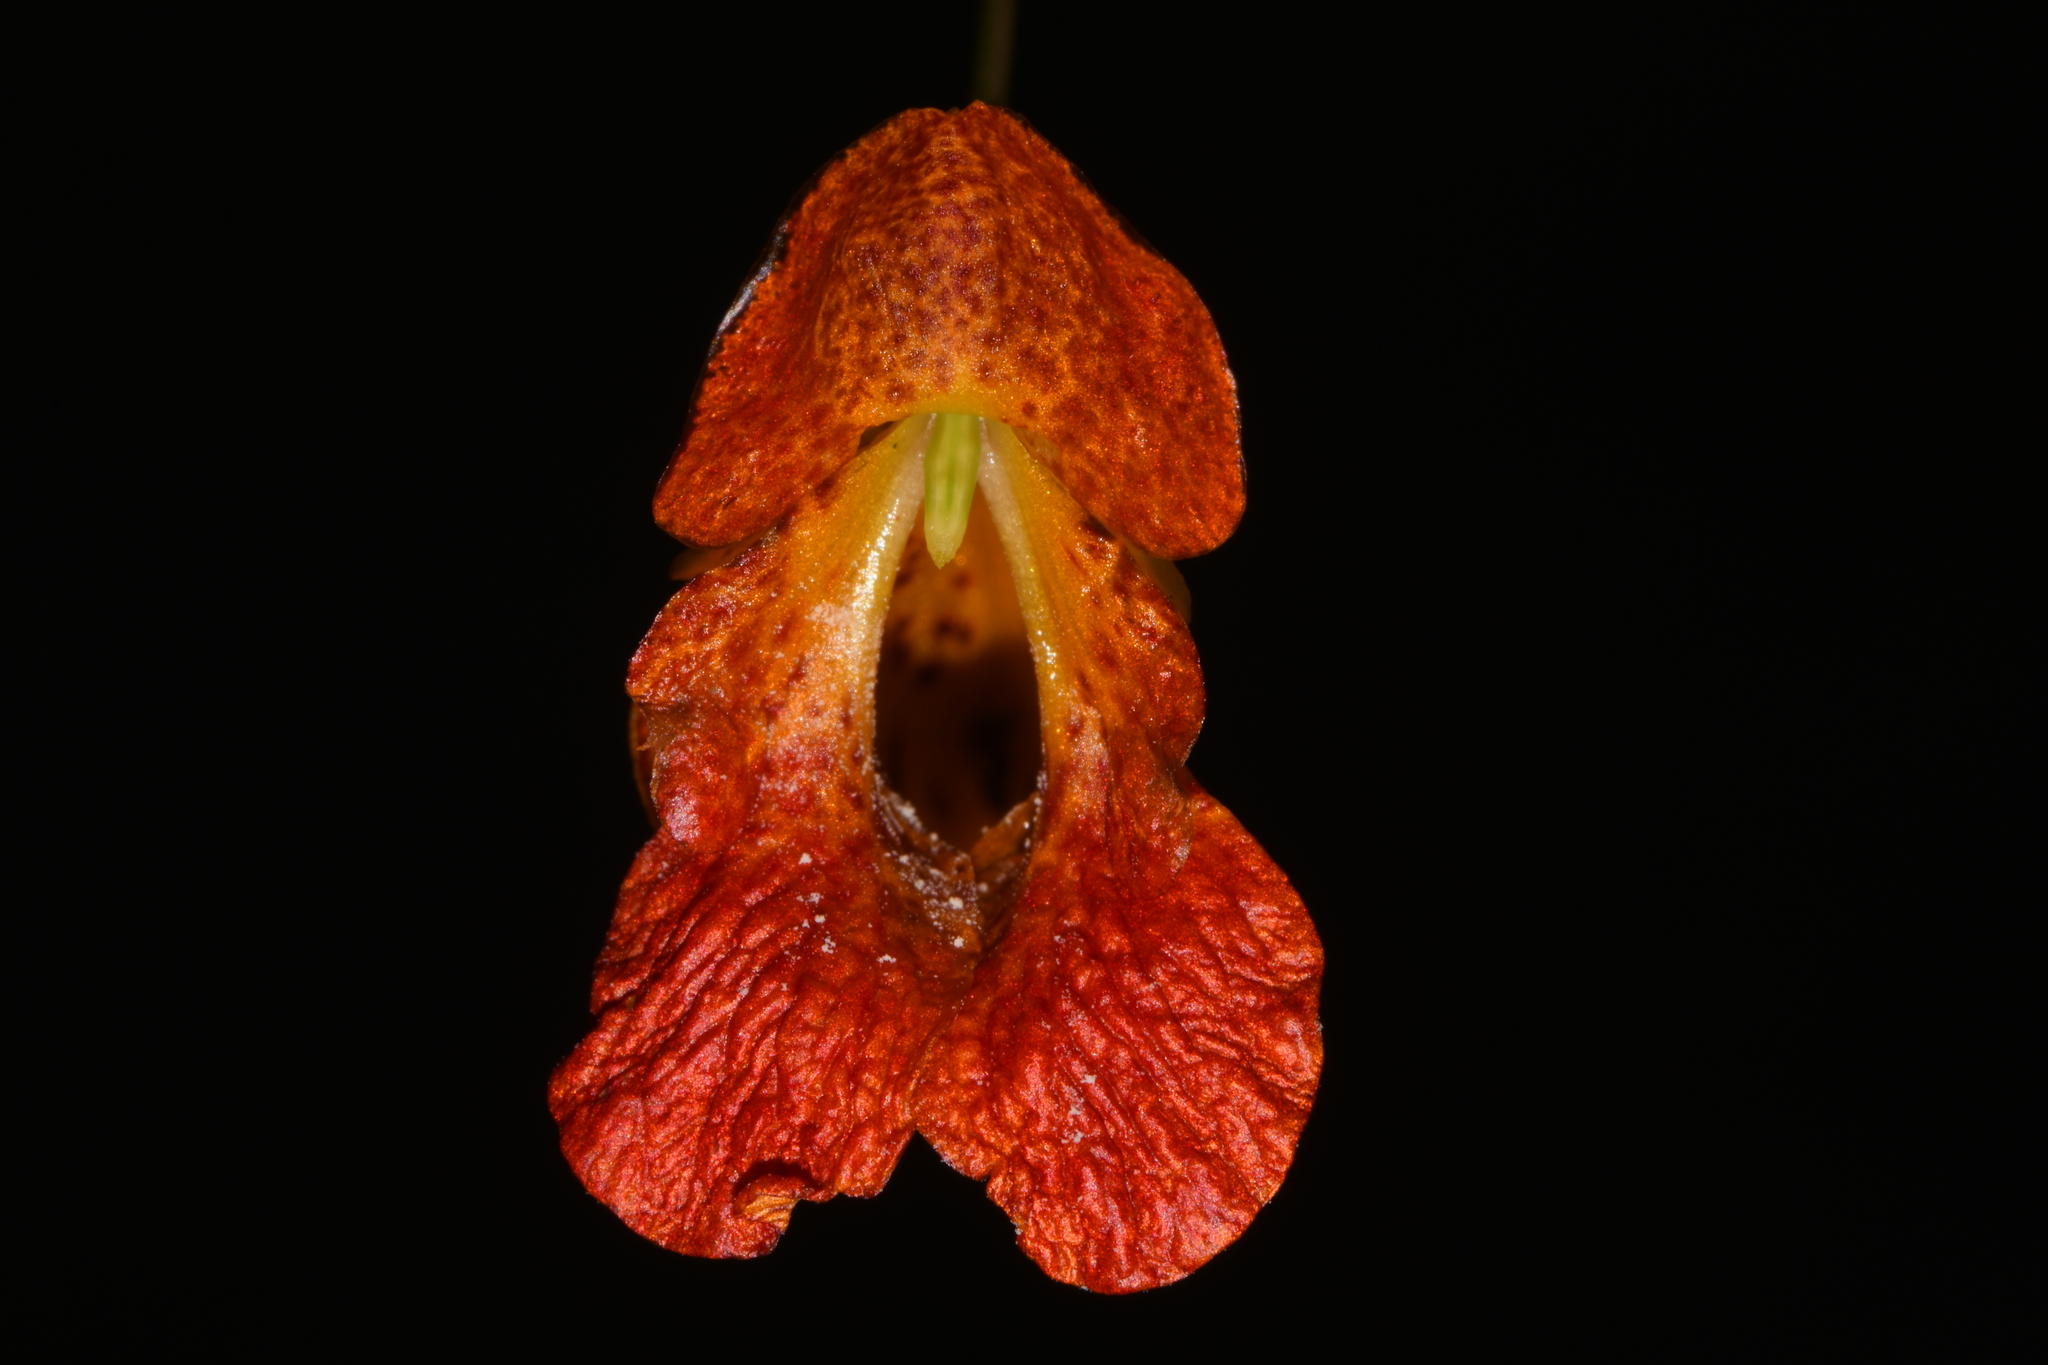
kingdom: Plantae
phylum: Tracheophyta
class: Magnoliopsida
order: Ericales
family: Balsaminaceae
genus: Impatiens
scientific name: Impatiens capensis
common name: Orange balsam
